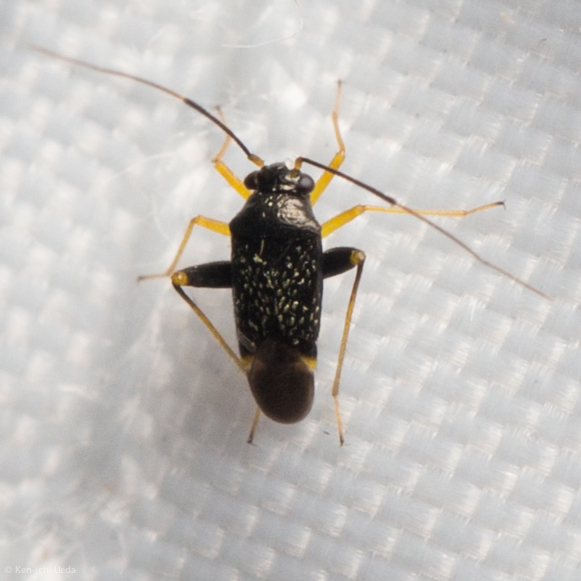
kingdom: Animalia
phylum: Arthropoda
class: Insecta
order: Hemiptera
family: Miridae
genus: Microtechnites
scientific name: Microtechnites bractatus
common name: Garden fleahopper
